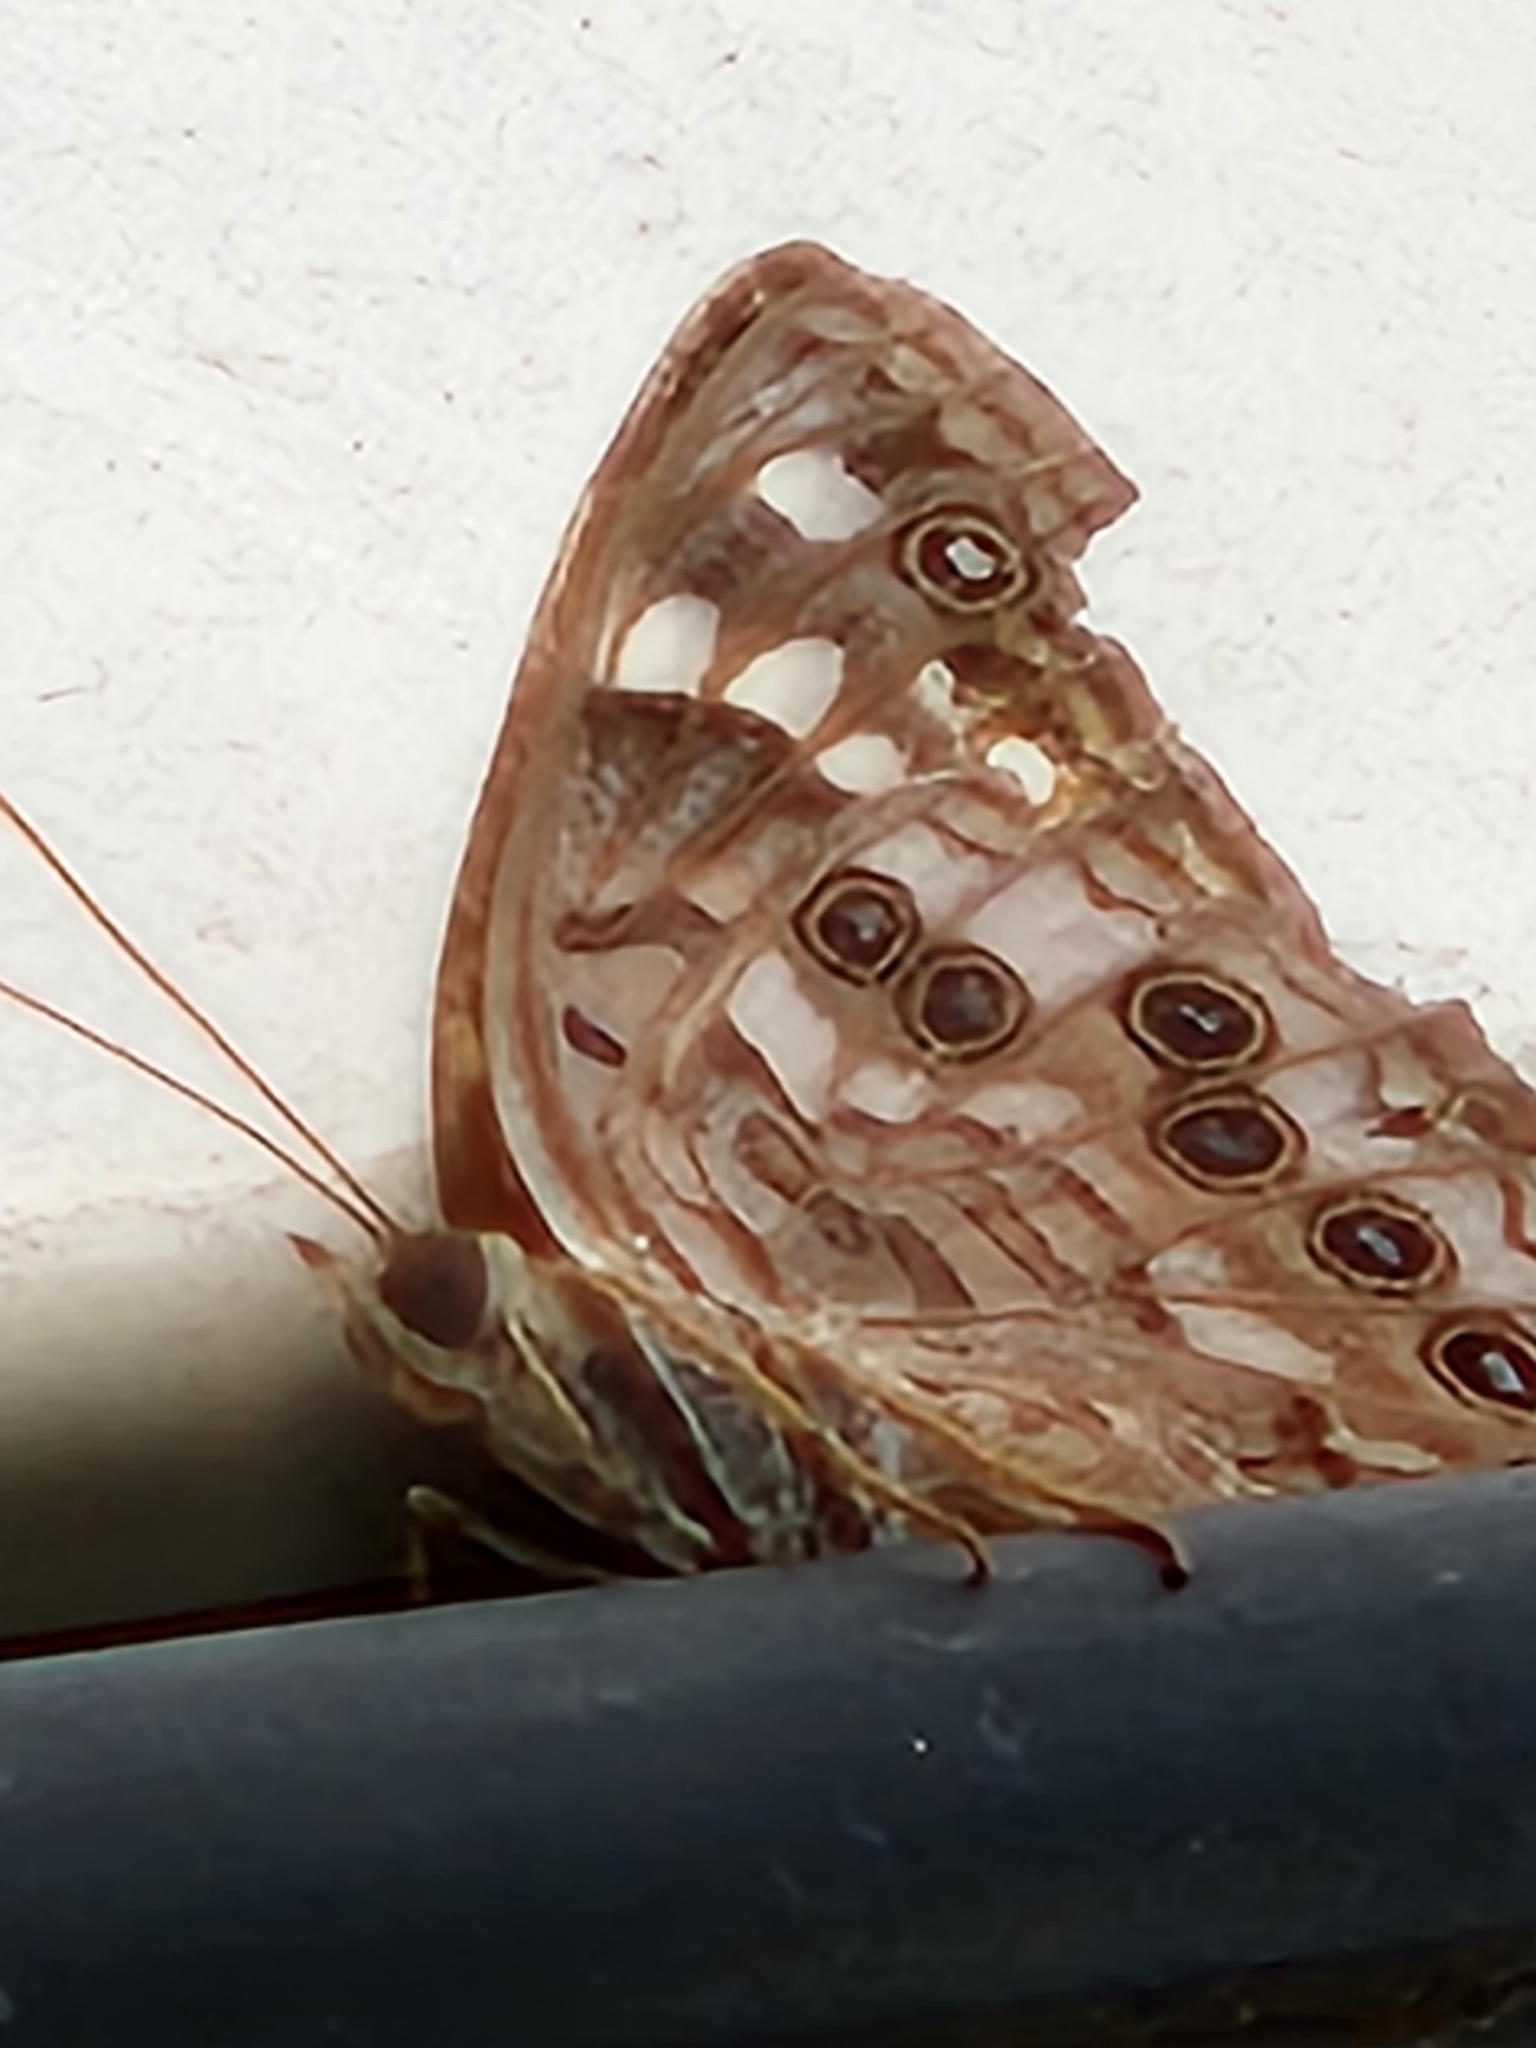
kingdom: Animalia
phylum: Arthropoda
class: Insecta
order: Lepidoptera
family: Nymphalidae
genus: Asterocampa
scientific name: Asterocampa celtis
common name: Hackberry emperor
